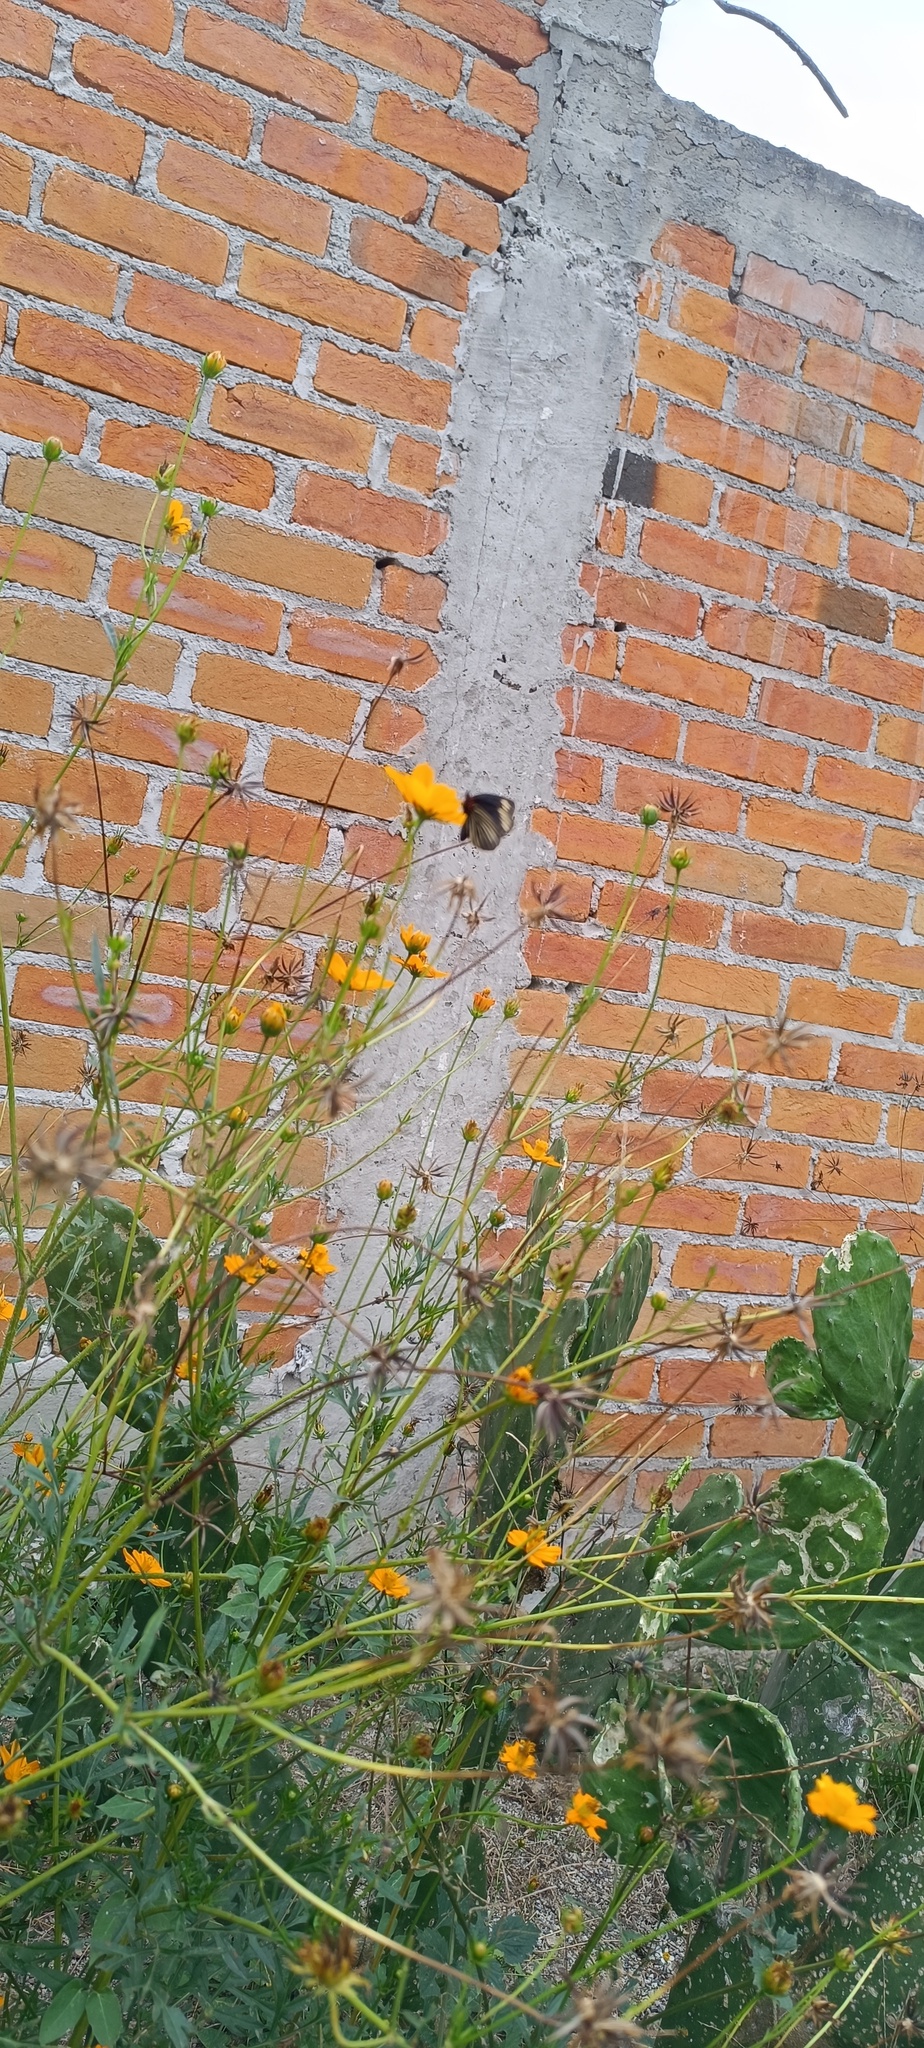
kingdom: Animalia
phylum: Arthropoda
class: Insecta
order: Lepidoptera
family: Nymphalidae
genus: Chlosyne
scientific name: Chlosyne ehrenbergii
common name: White-rayed patch
